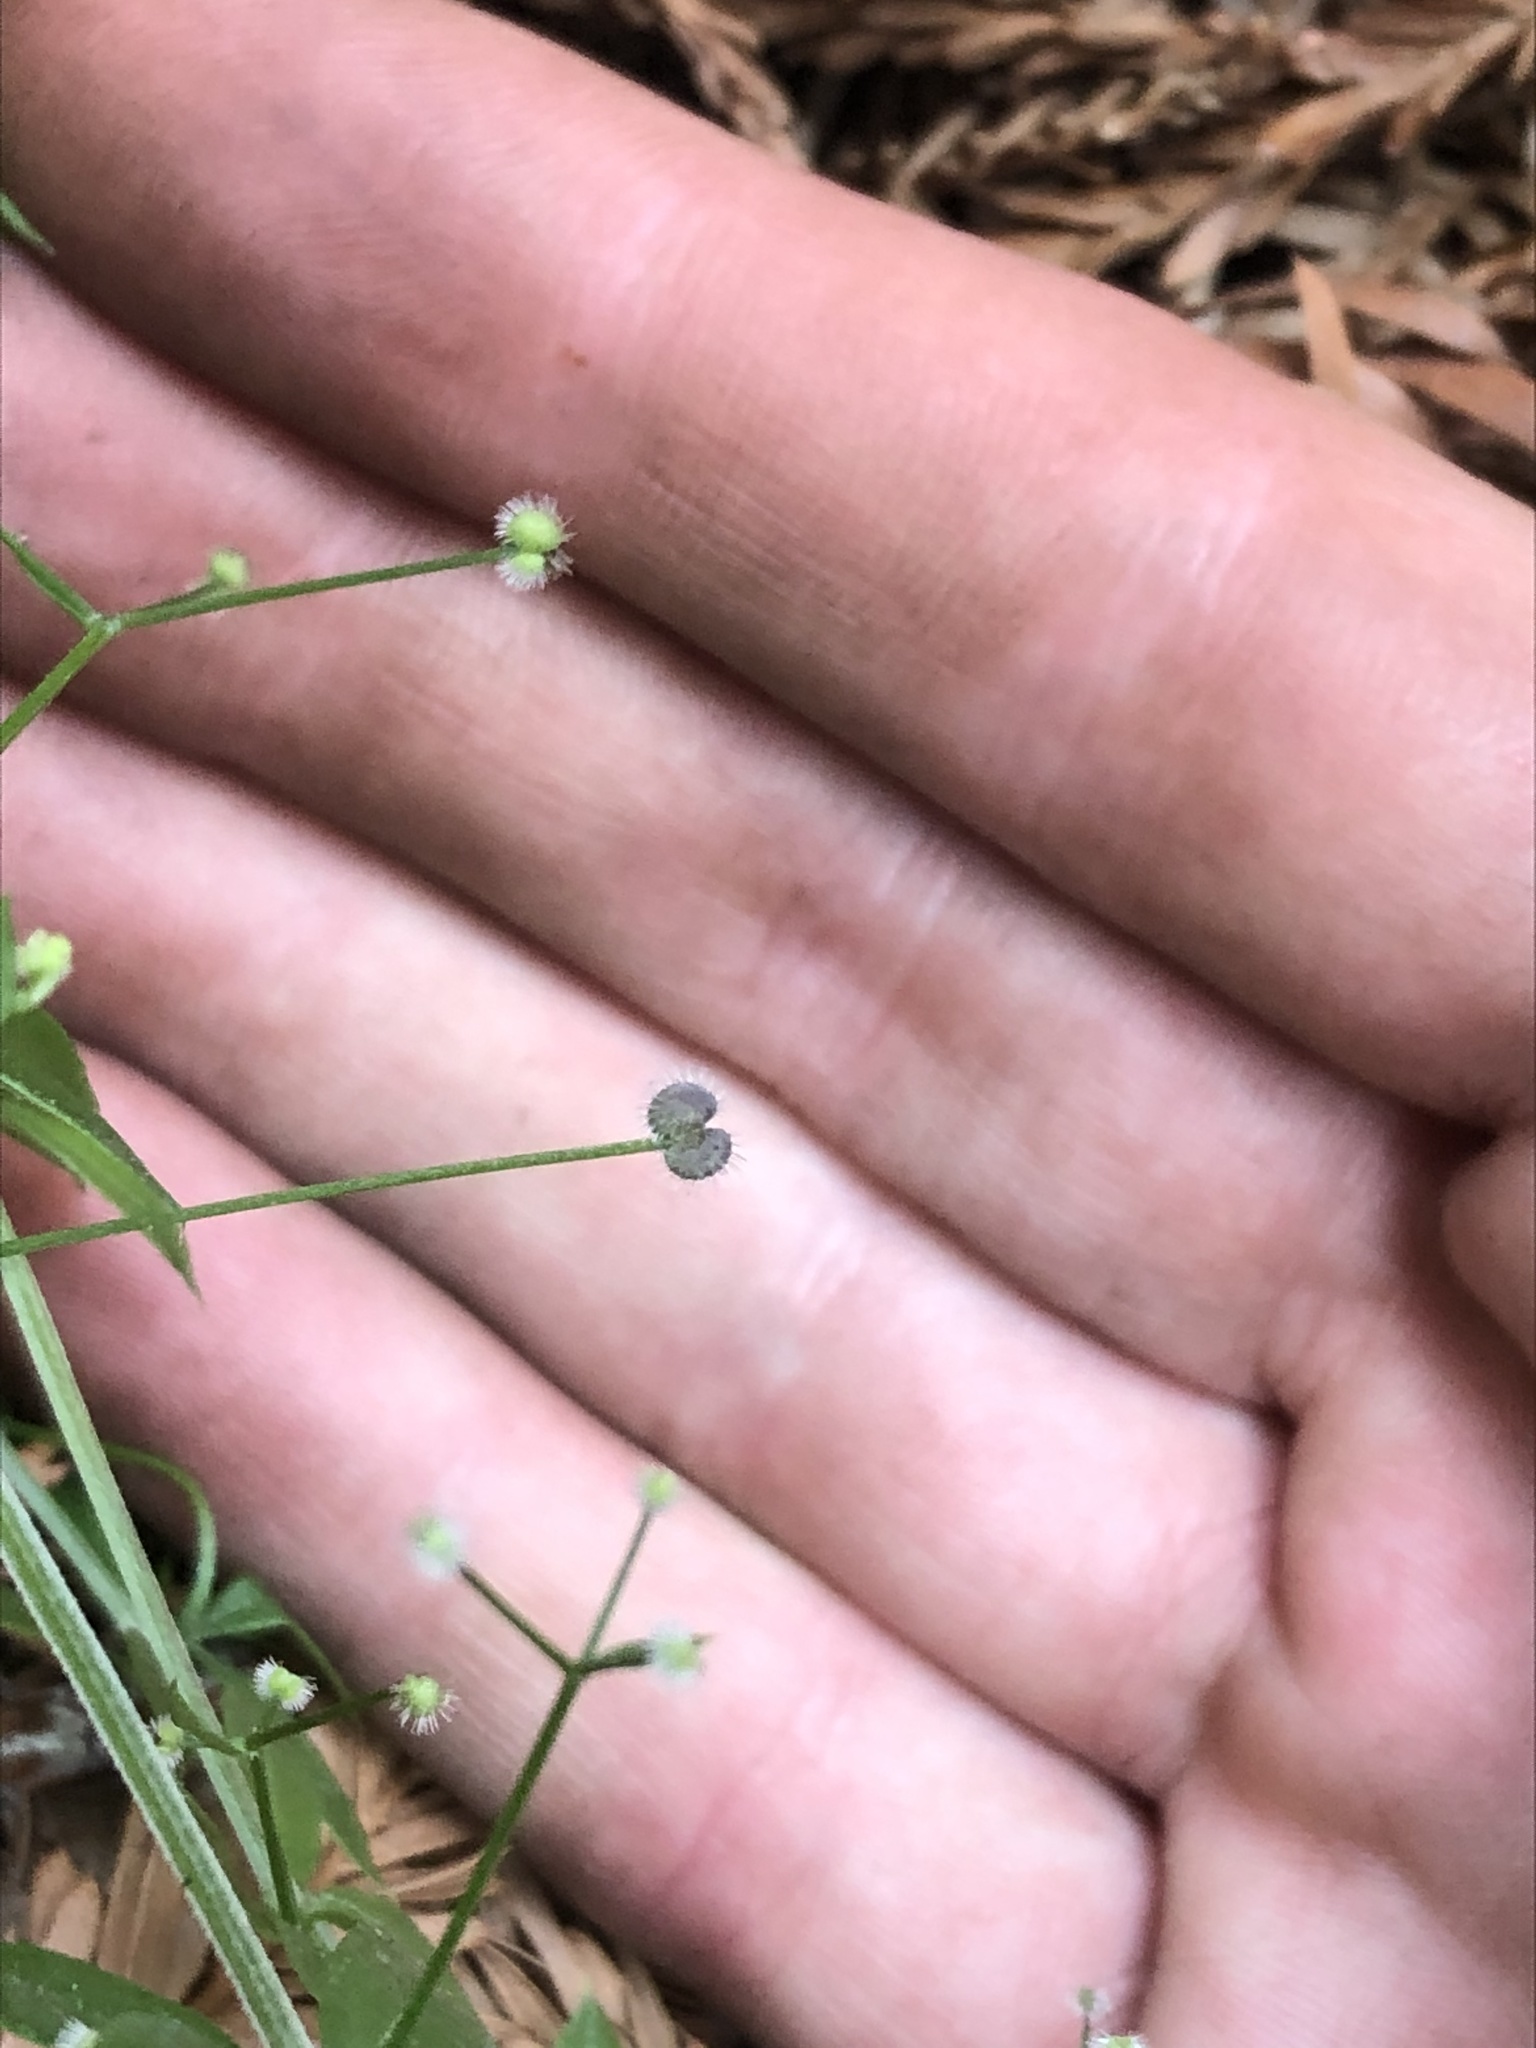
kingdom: Plantae
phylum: Tracheophyta
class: Magnoliopsida
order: Gentianales
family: Rubiaceae
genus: Galium
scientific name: Galium triflorum
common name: Fragrant bedstraw
